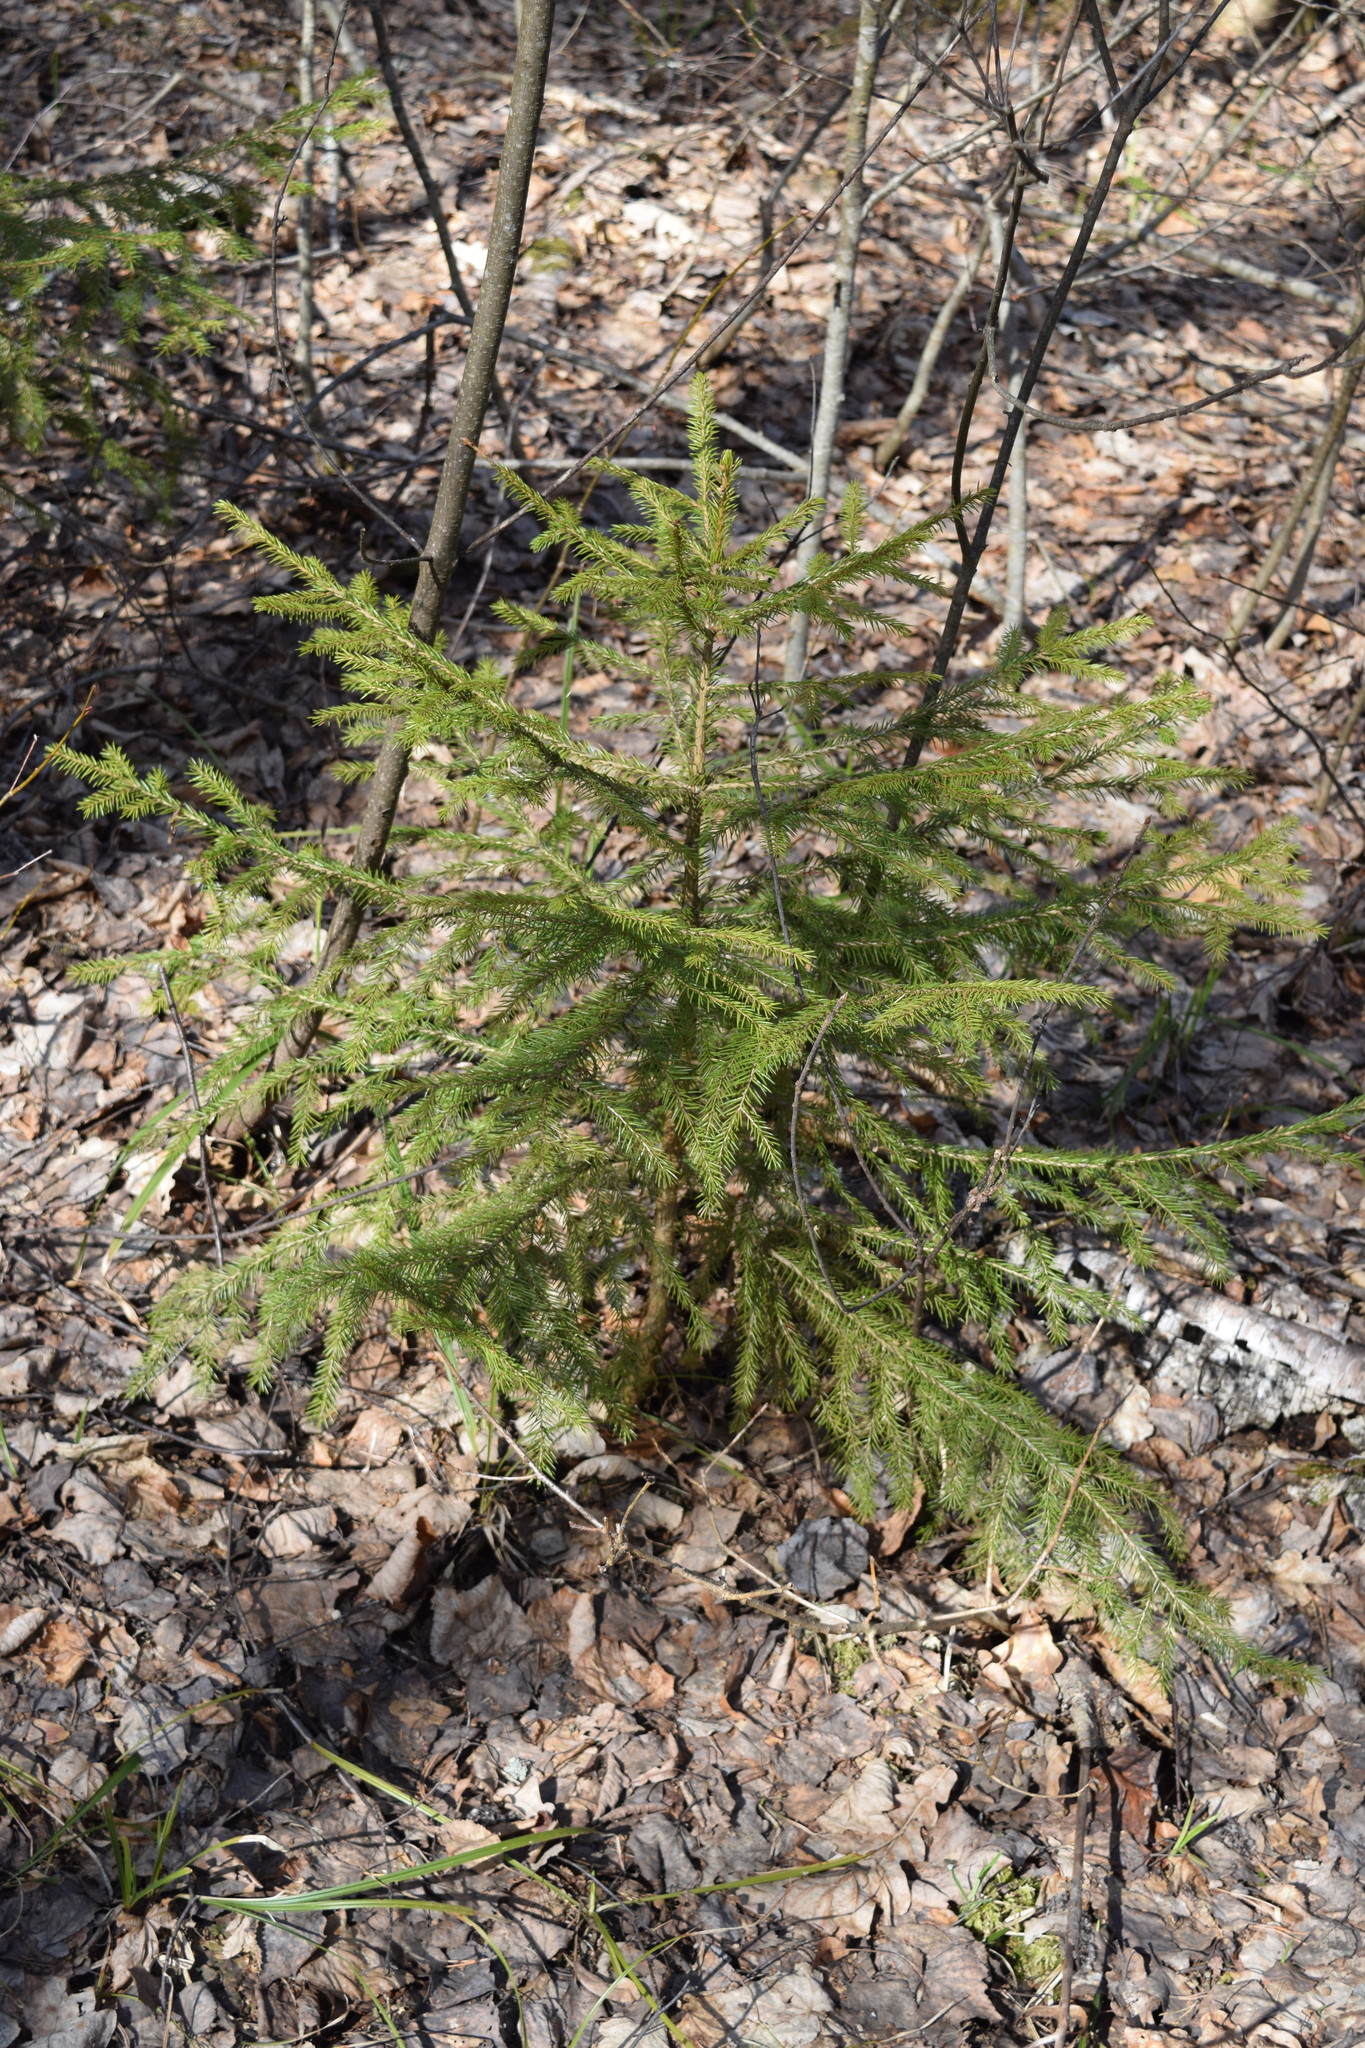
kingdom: Plantae
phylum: Tracheophyta
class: Pinopsida
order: Pinales
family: Pinaceae
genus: Picea
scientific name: Picea abies
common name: Norway spruce
